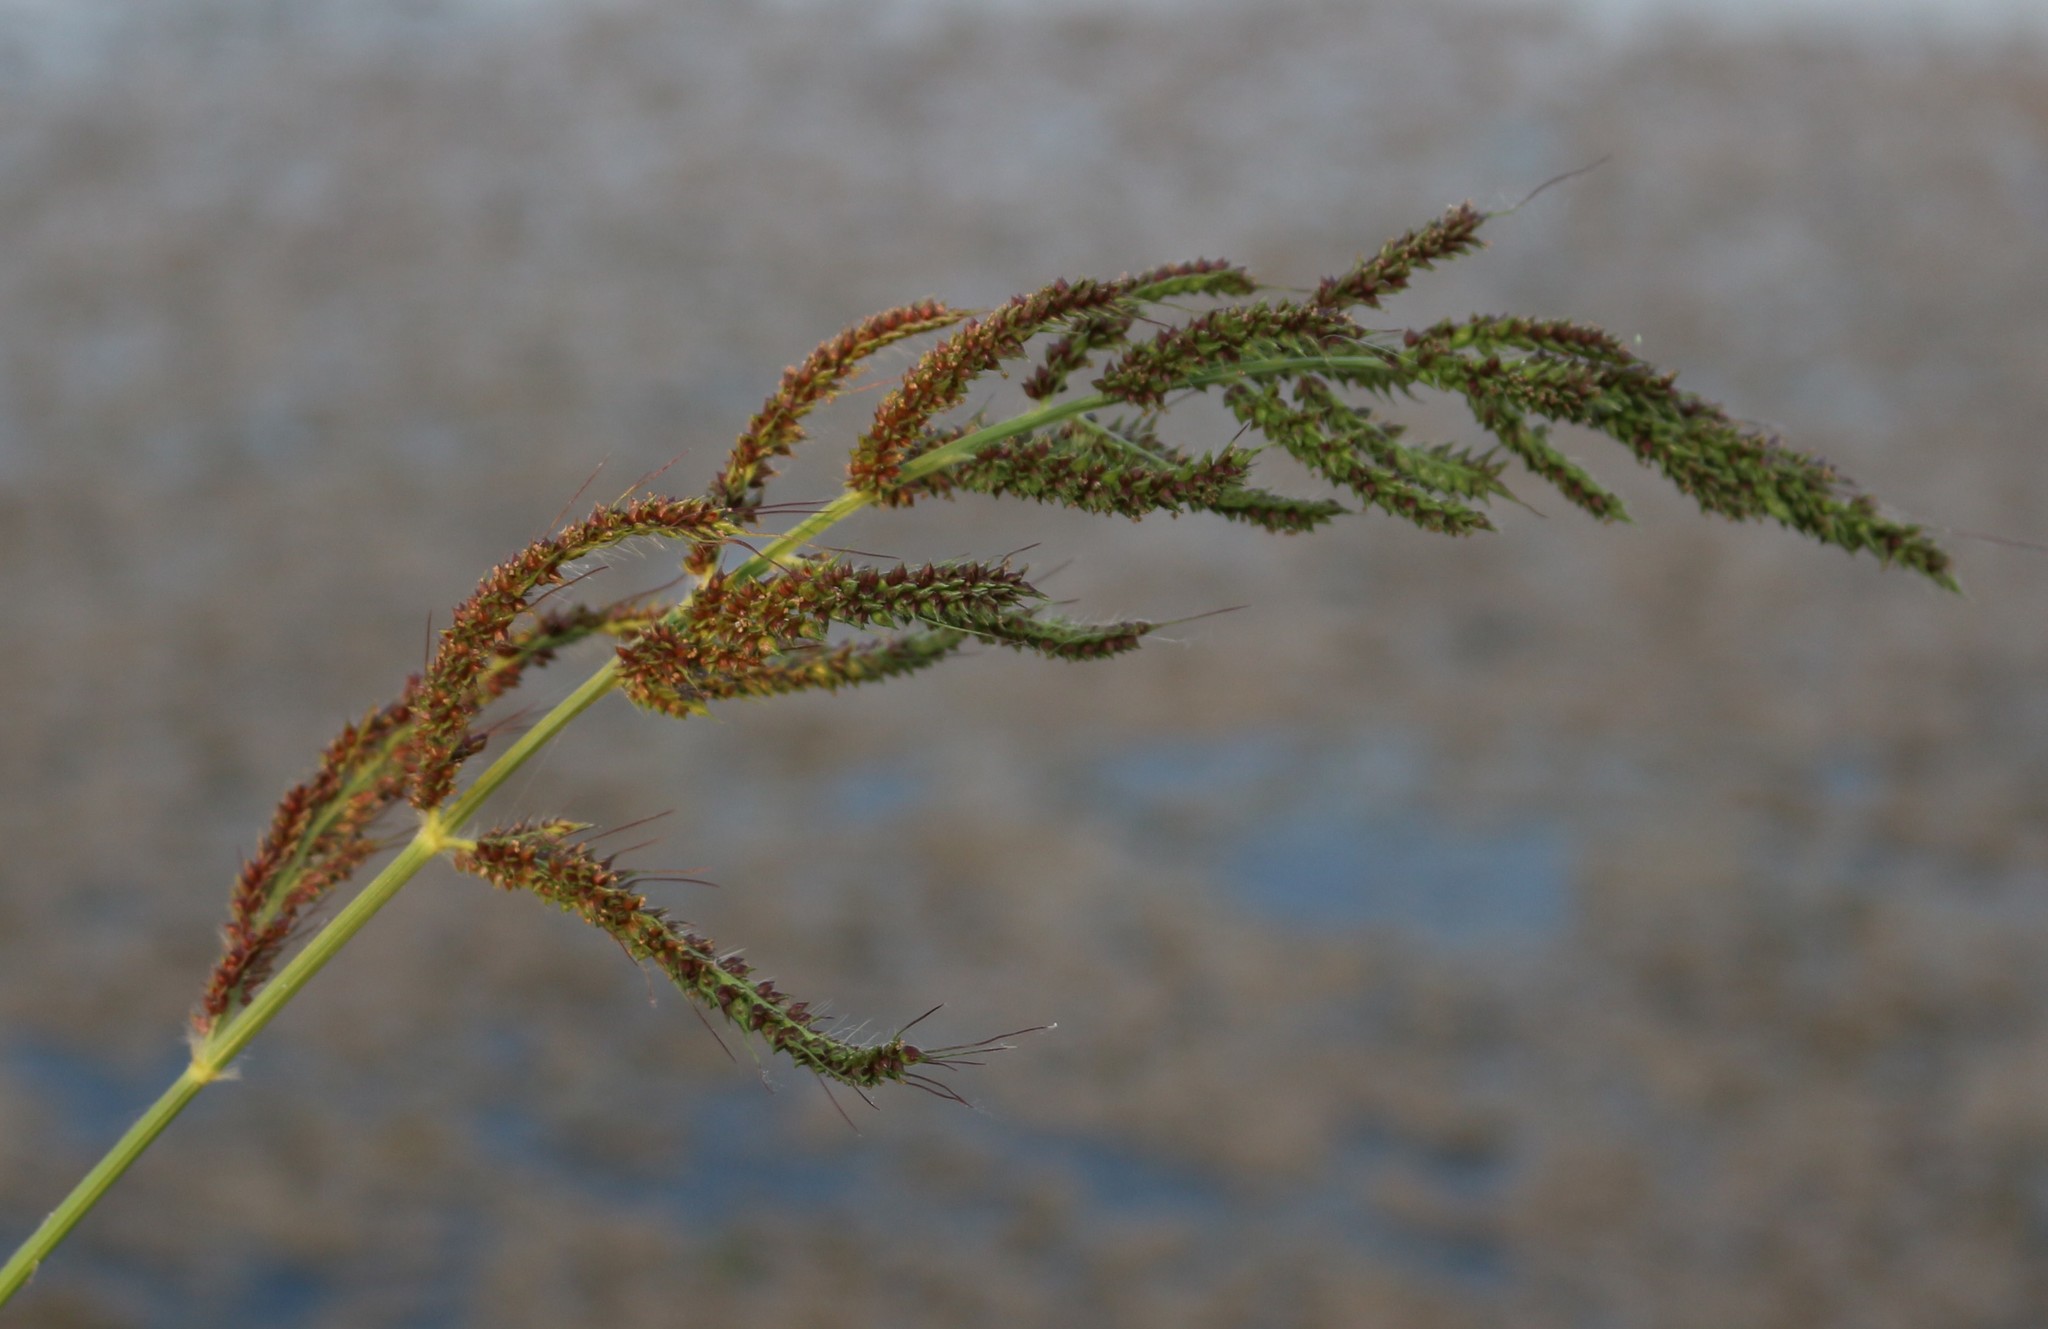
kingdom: Plantae
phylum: Tracheophyta
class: Liliopsida
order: Poales
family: Poaceae
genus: Echinochloa
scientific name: Echinochloa crus-galli
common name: Cockspur
